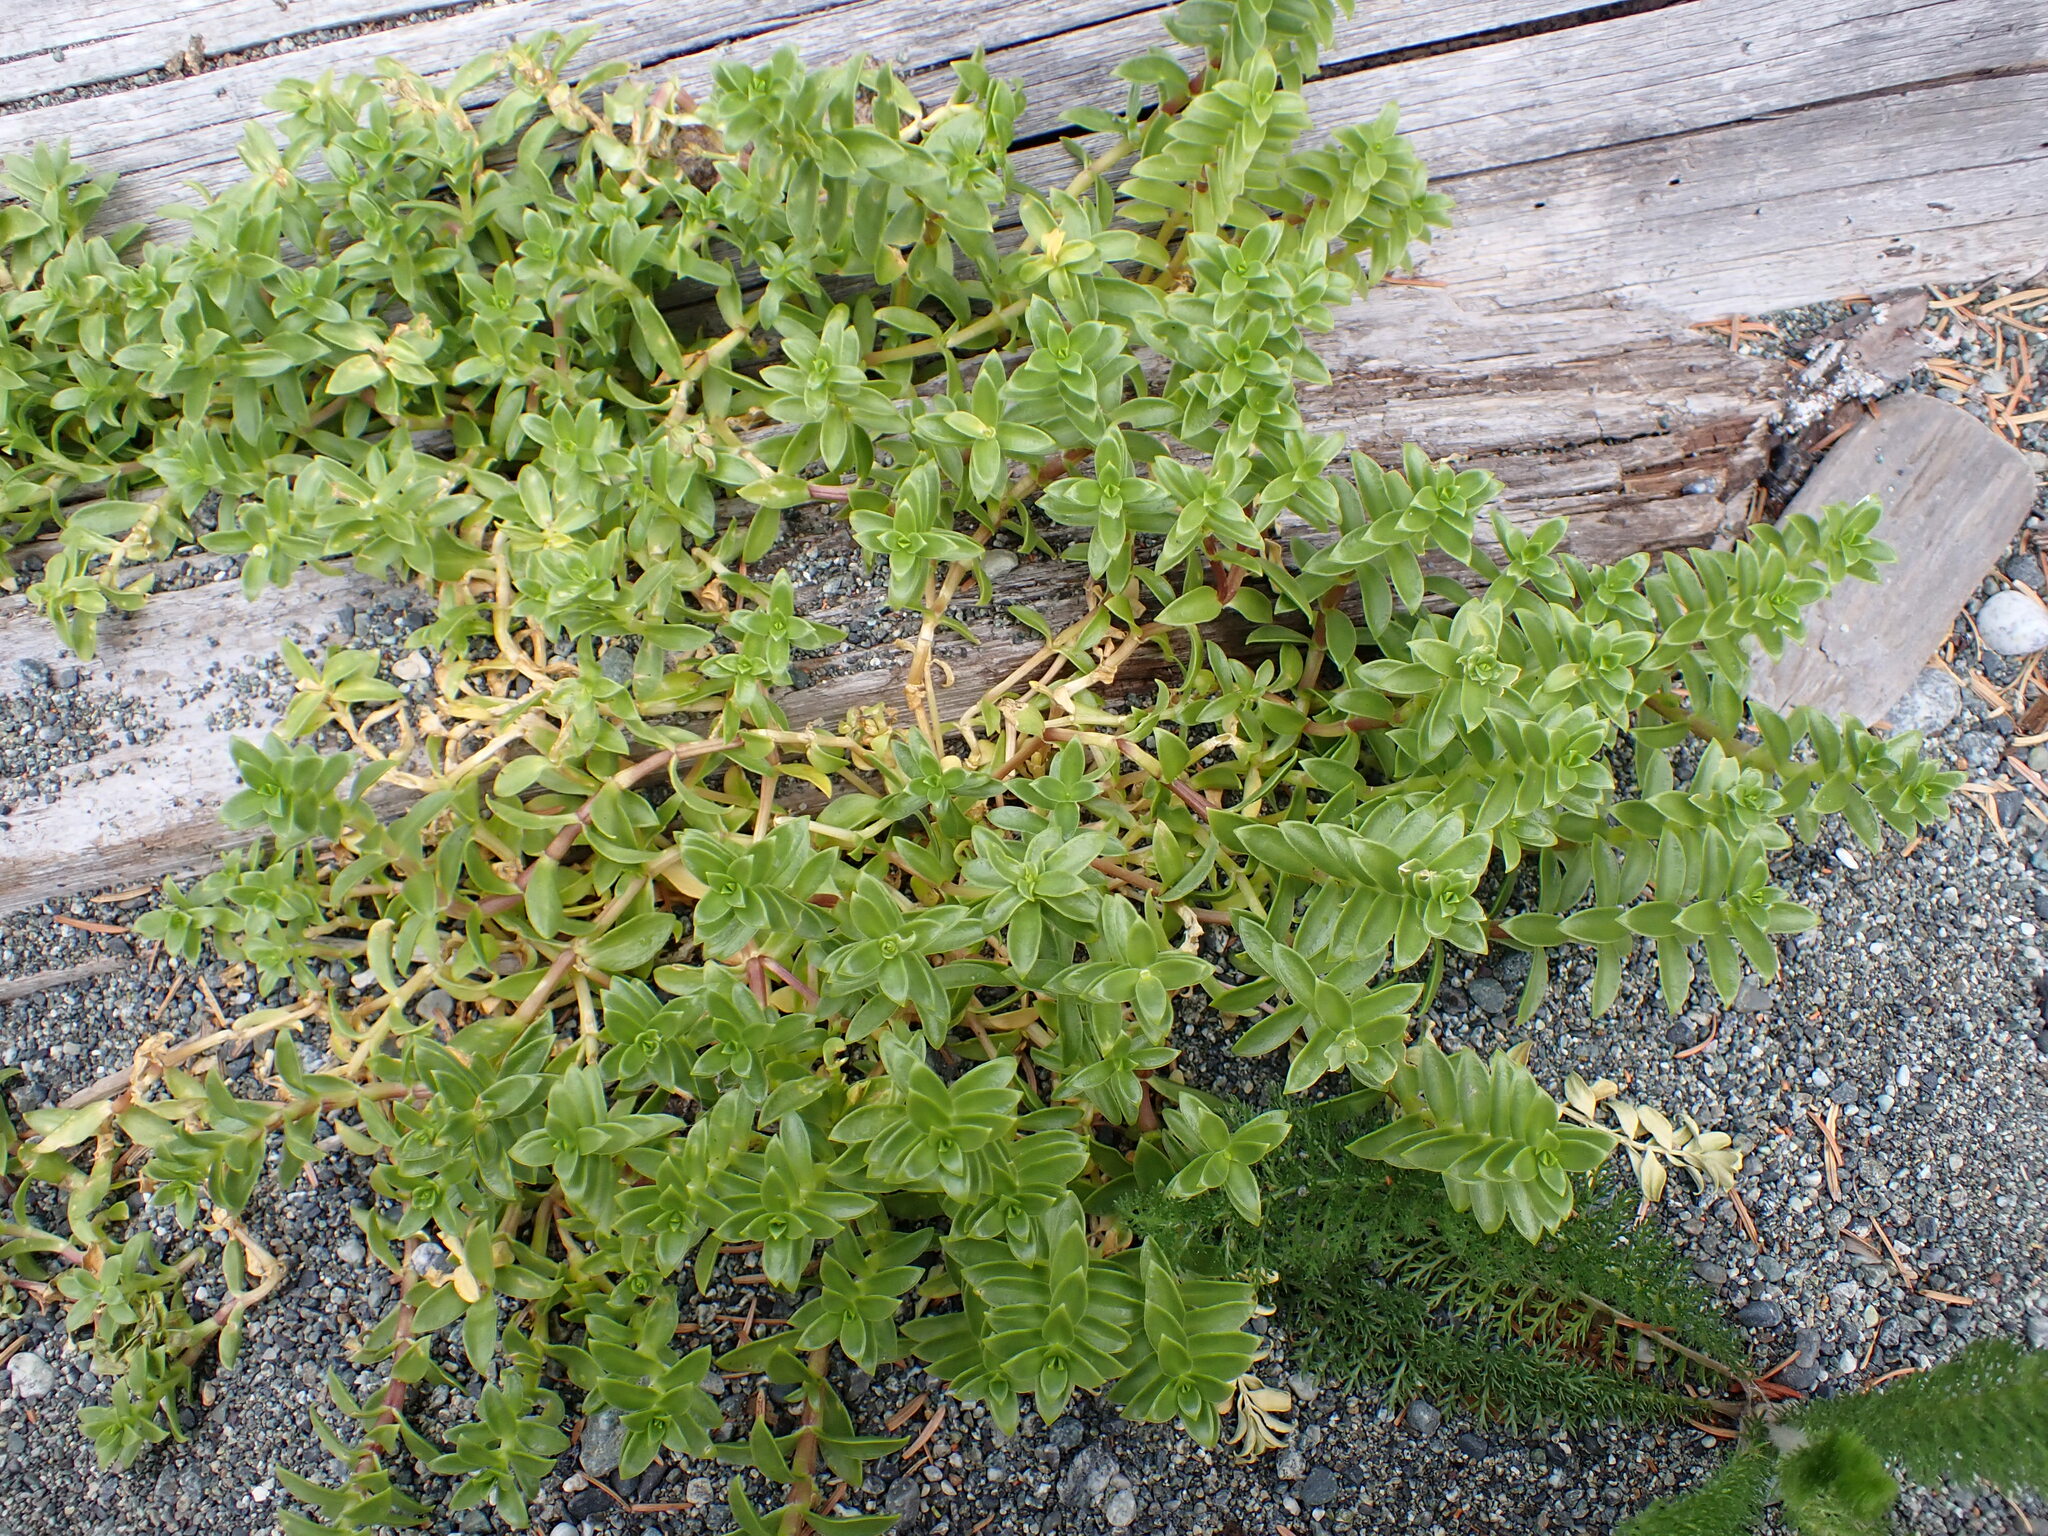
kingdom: Plantae
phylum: Tracheophyta
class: Magnoliopsida
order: Caryophyllales
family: Caryophyllaceae
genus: Honckenya
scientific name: Honckenya peploides
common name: Sea sandwort
